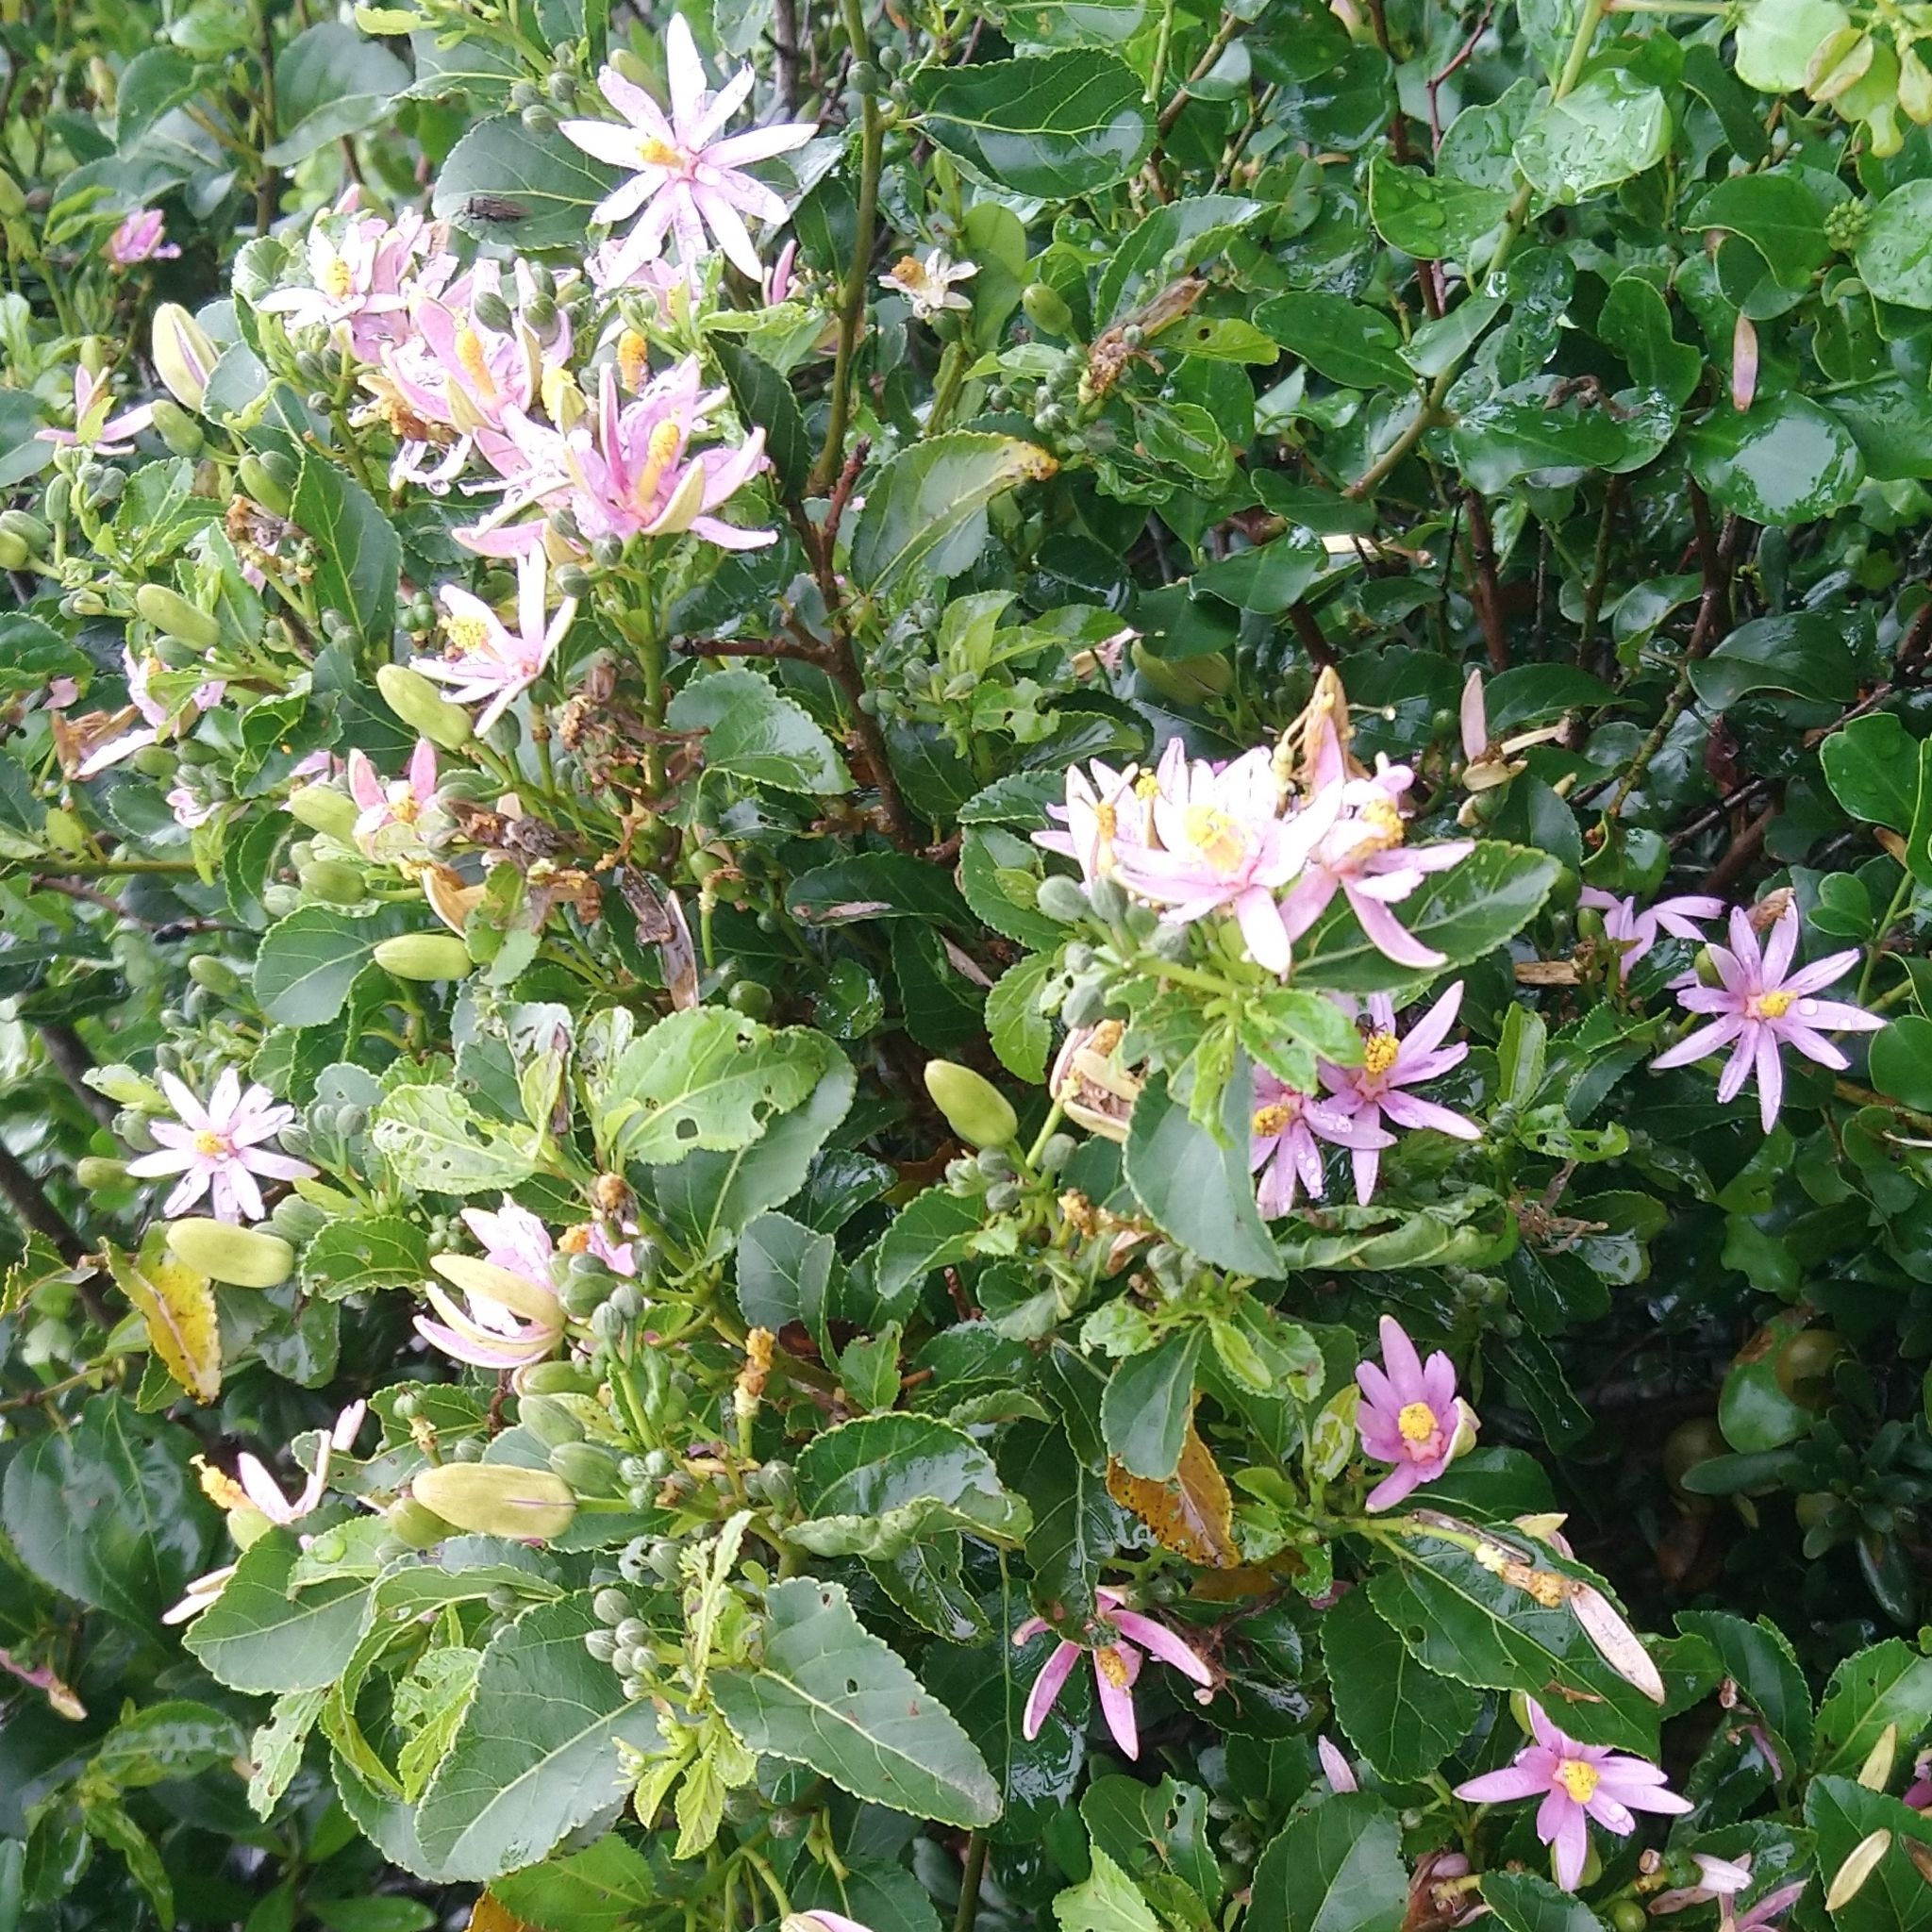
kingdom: Plantae
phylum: Tracheophyta
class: Magnoliopsida
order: Malvales
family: Malvaceae
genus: Grewia
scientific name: Grewia occidentalis
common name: Crossberry
